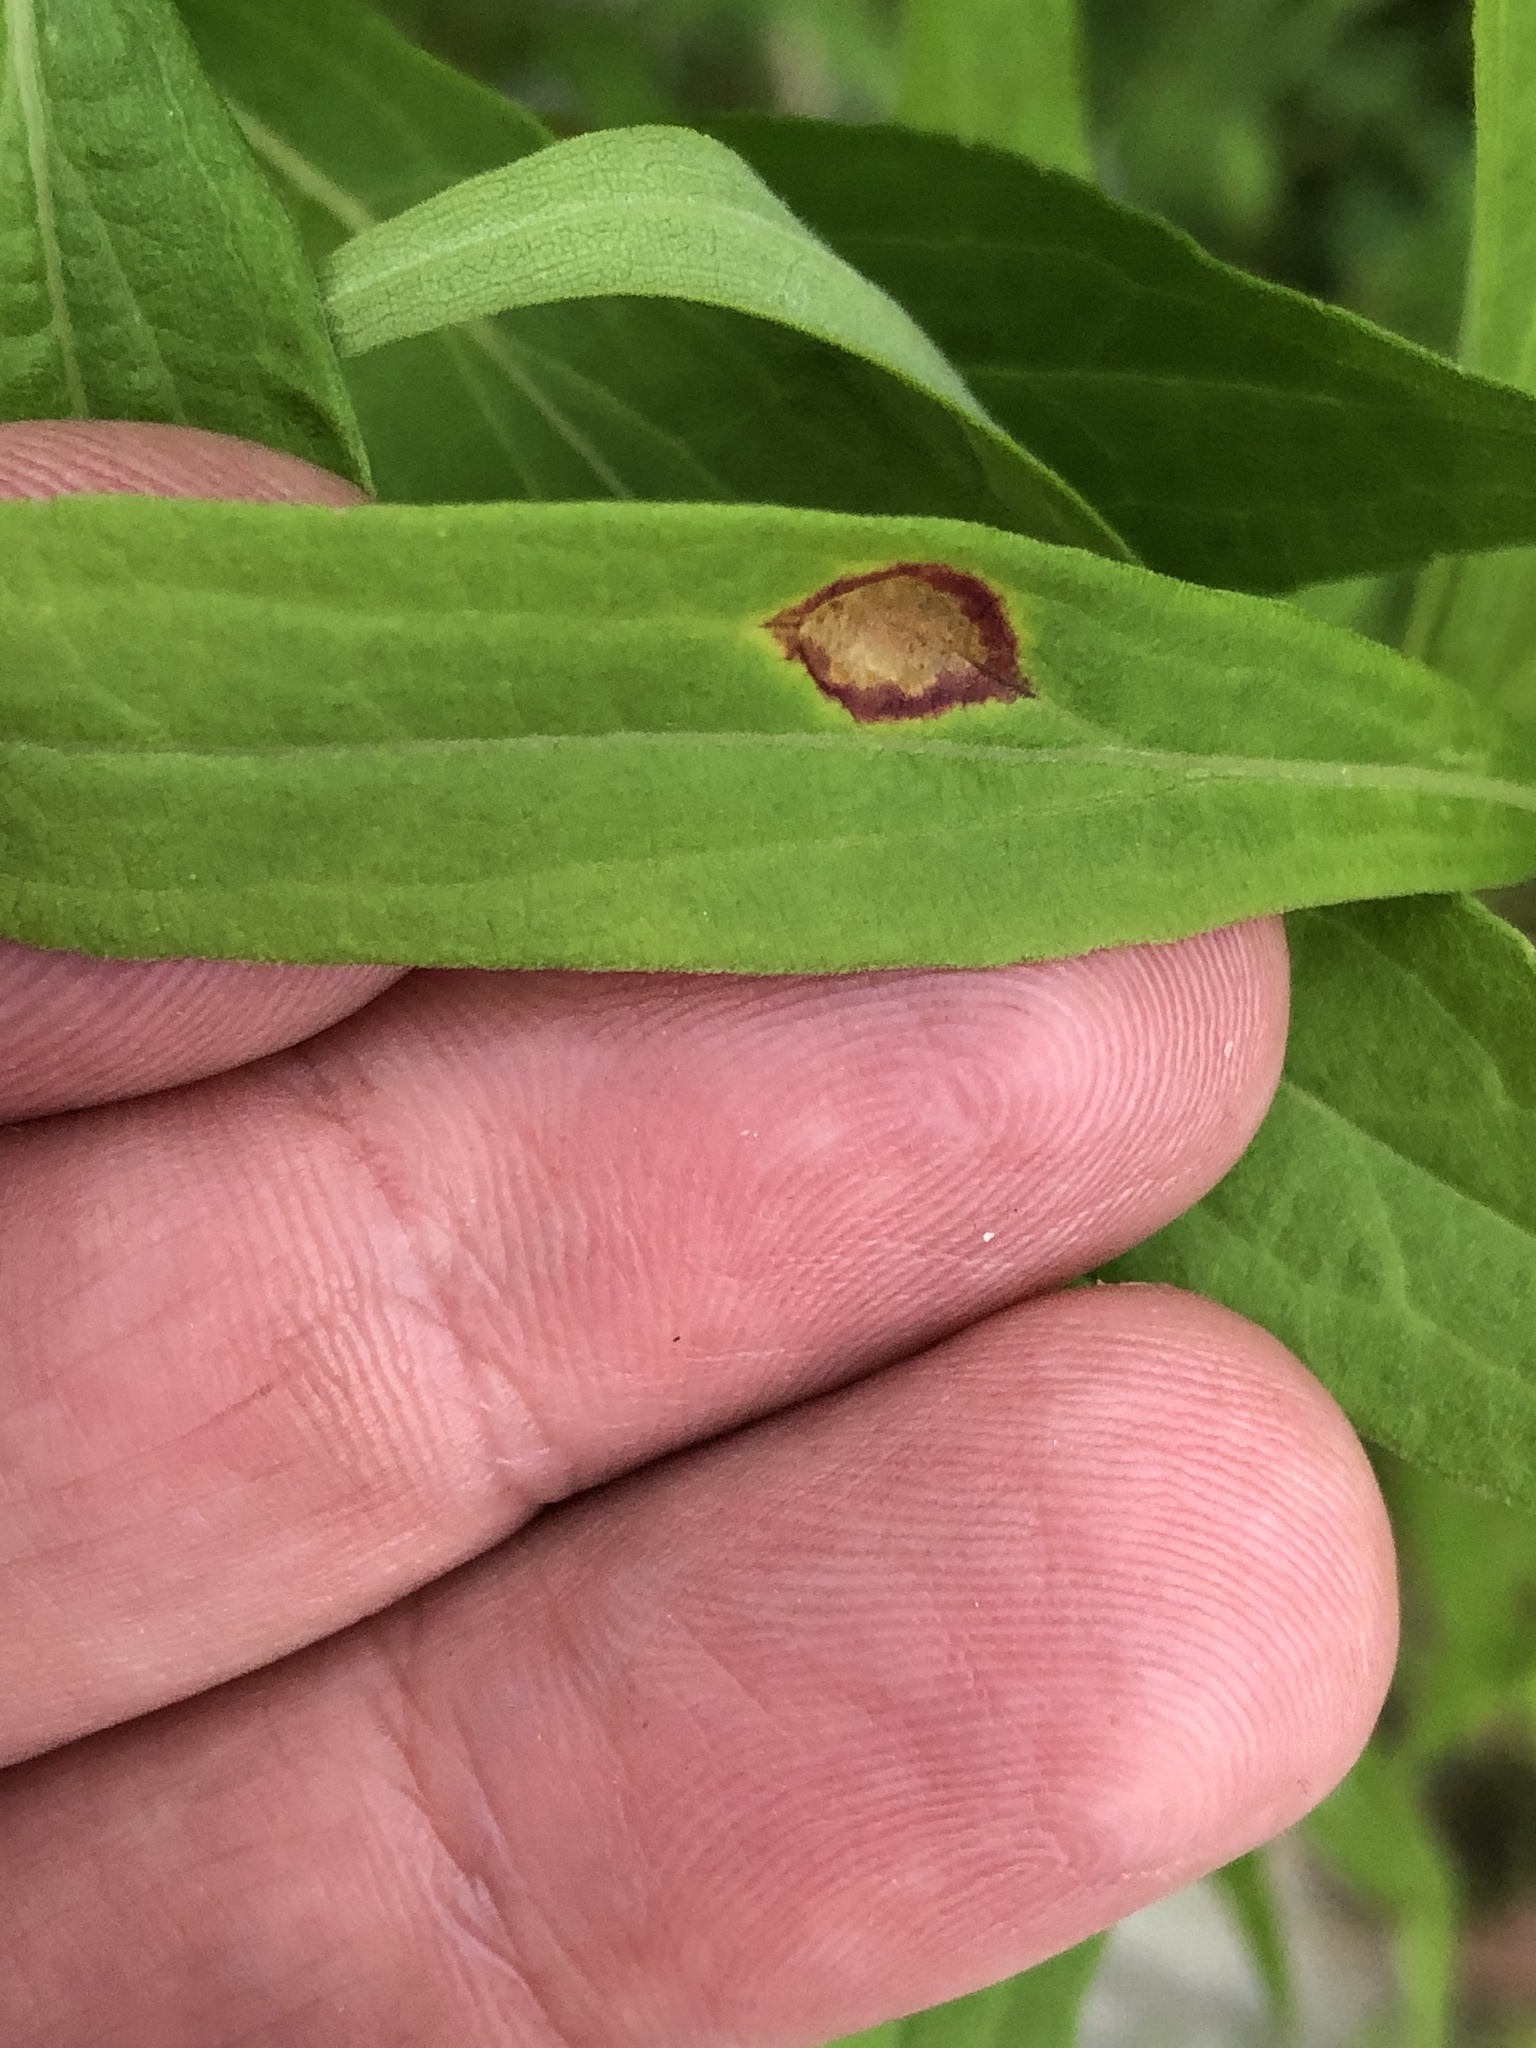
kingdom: Animalia
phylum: Arthropoda
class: Insecta
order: Diptera
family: Cecidomyiidae
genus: Asteromyia
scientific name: Asteromyia carbonifera
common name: Carbonifera goldenrod gall midge
